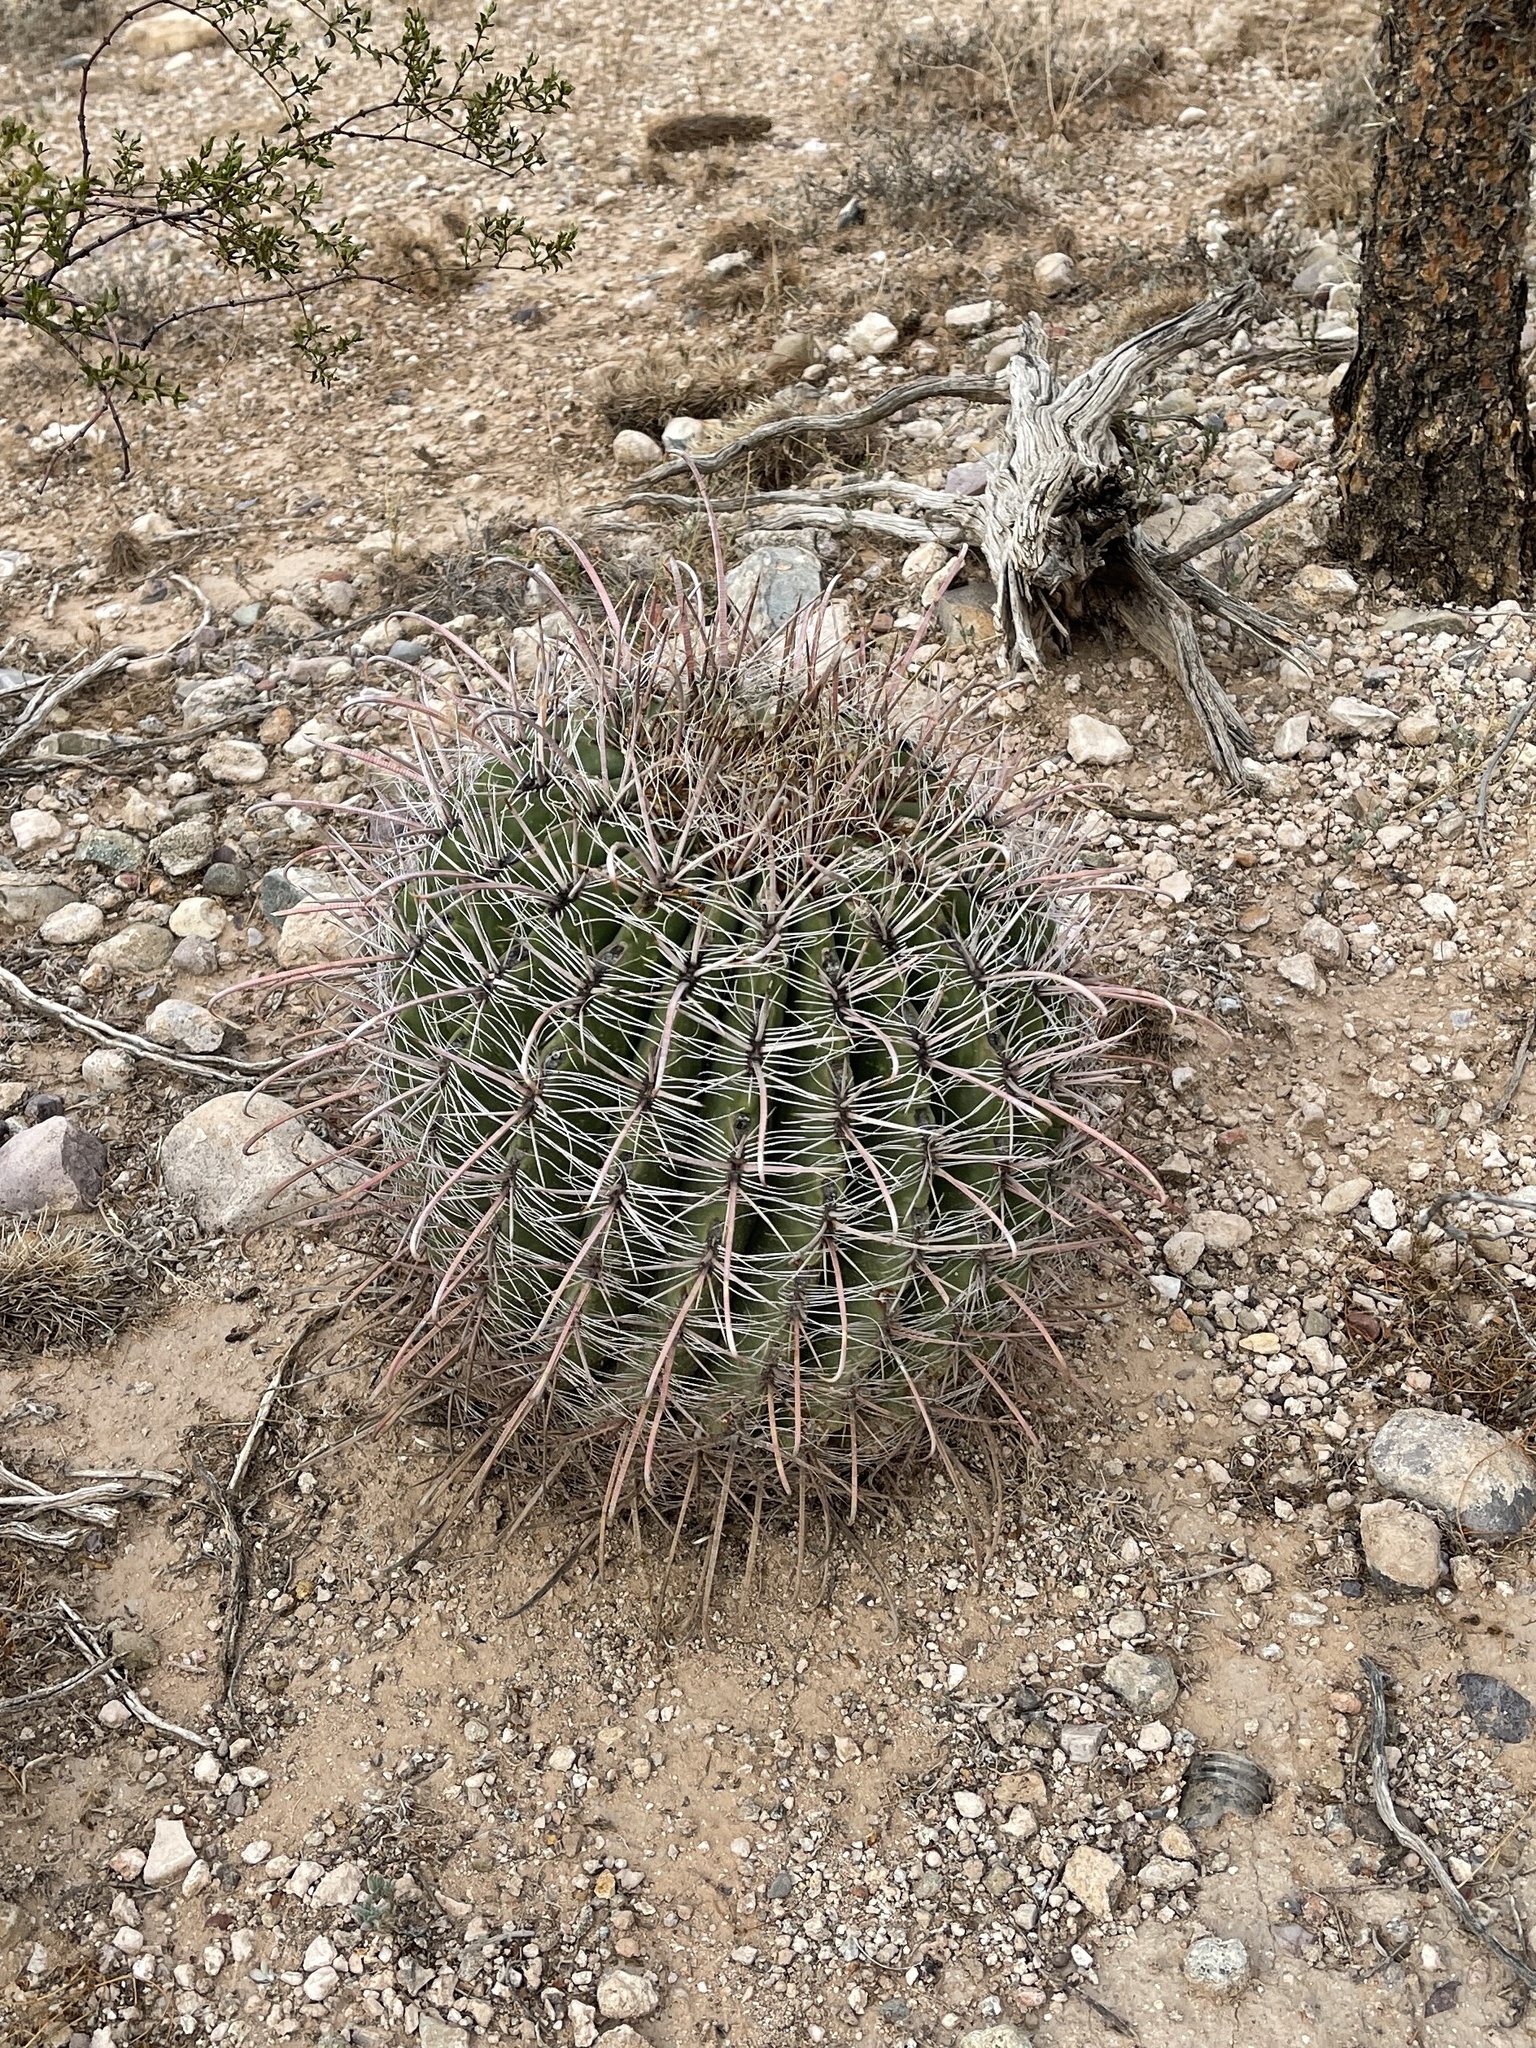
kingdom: Plantae
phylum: Tracheophyta
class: Magnoliopsida
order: Caryophyllales
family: Cactaceae
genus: Ferocactus
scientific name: Ferocactus wislizeni
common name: Candy barrel cactus
